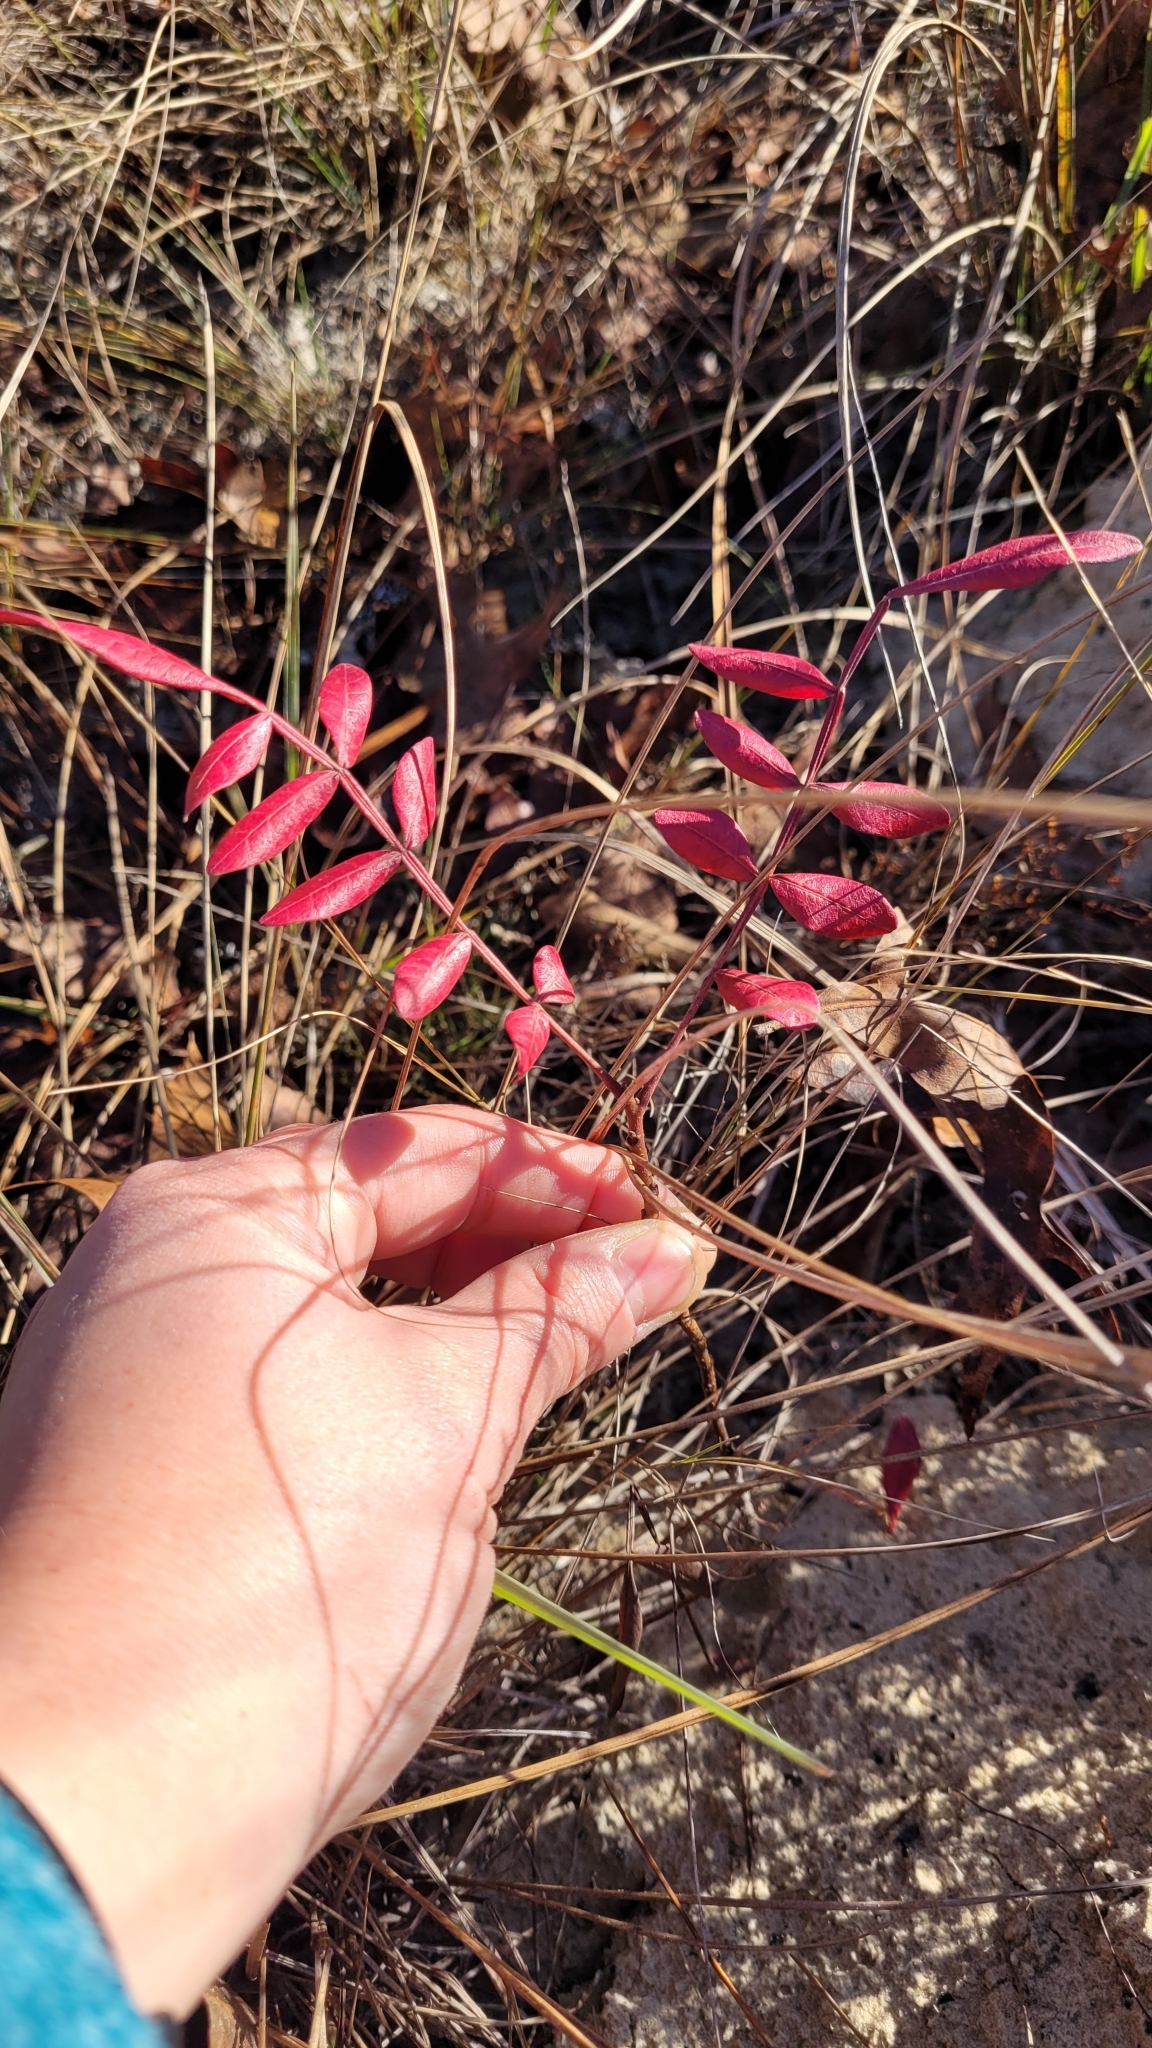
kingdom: Plantae
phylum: Tracheophyta
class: Magnoliopsida
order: Sapindales
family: Anacardiaceae
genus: Rhus
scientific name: Rhus copallina
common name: Shining sumac
